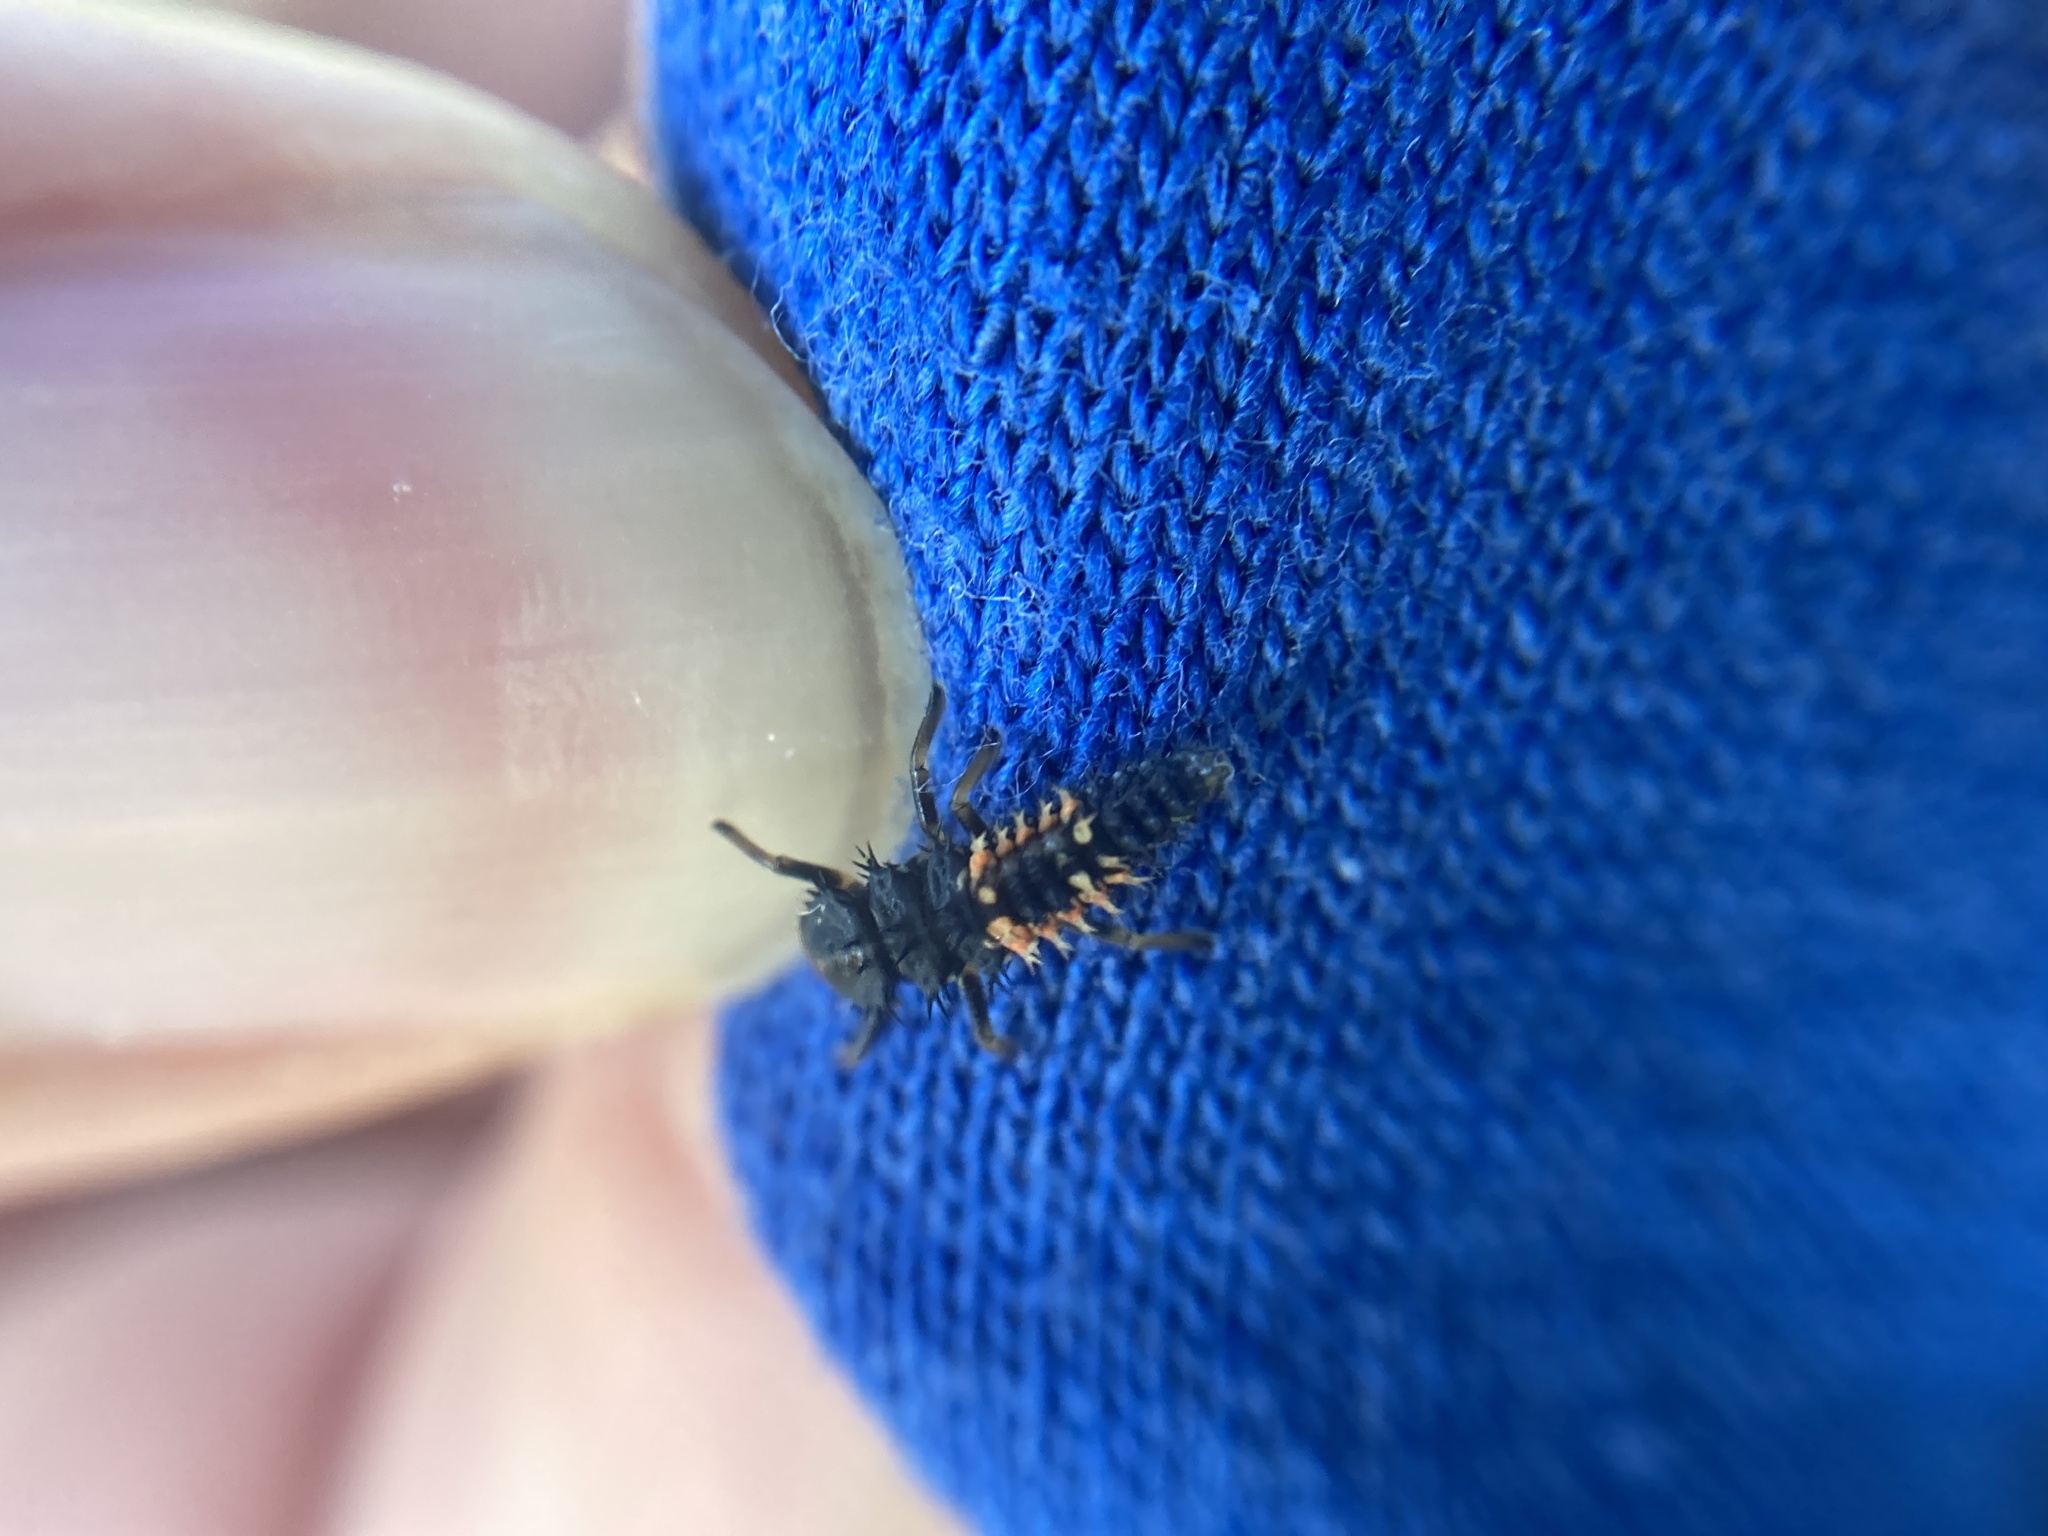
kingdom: Animalia
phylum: Arthropoda
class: Insecta
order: Coleoptera
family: Coccinellidae
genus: Harmonia
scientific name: Harmonia axyridis
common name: Harlequin ladybird
